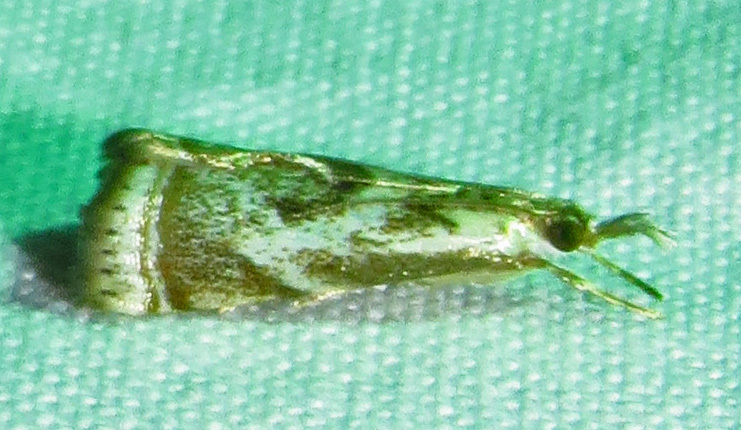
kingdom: Animalia
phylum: Arthropoda
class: Insecta
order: Lepidoptera
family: Crambidae
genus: Microcrambus
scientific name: Microcrambus elegans
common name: Elegant grass-veneer
